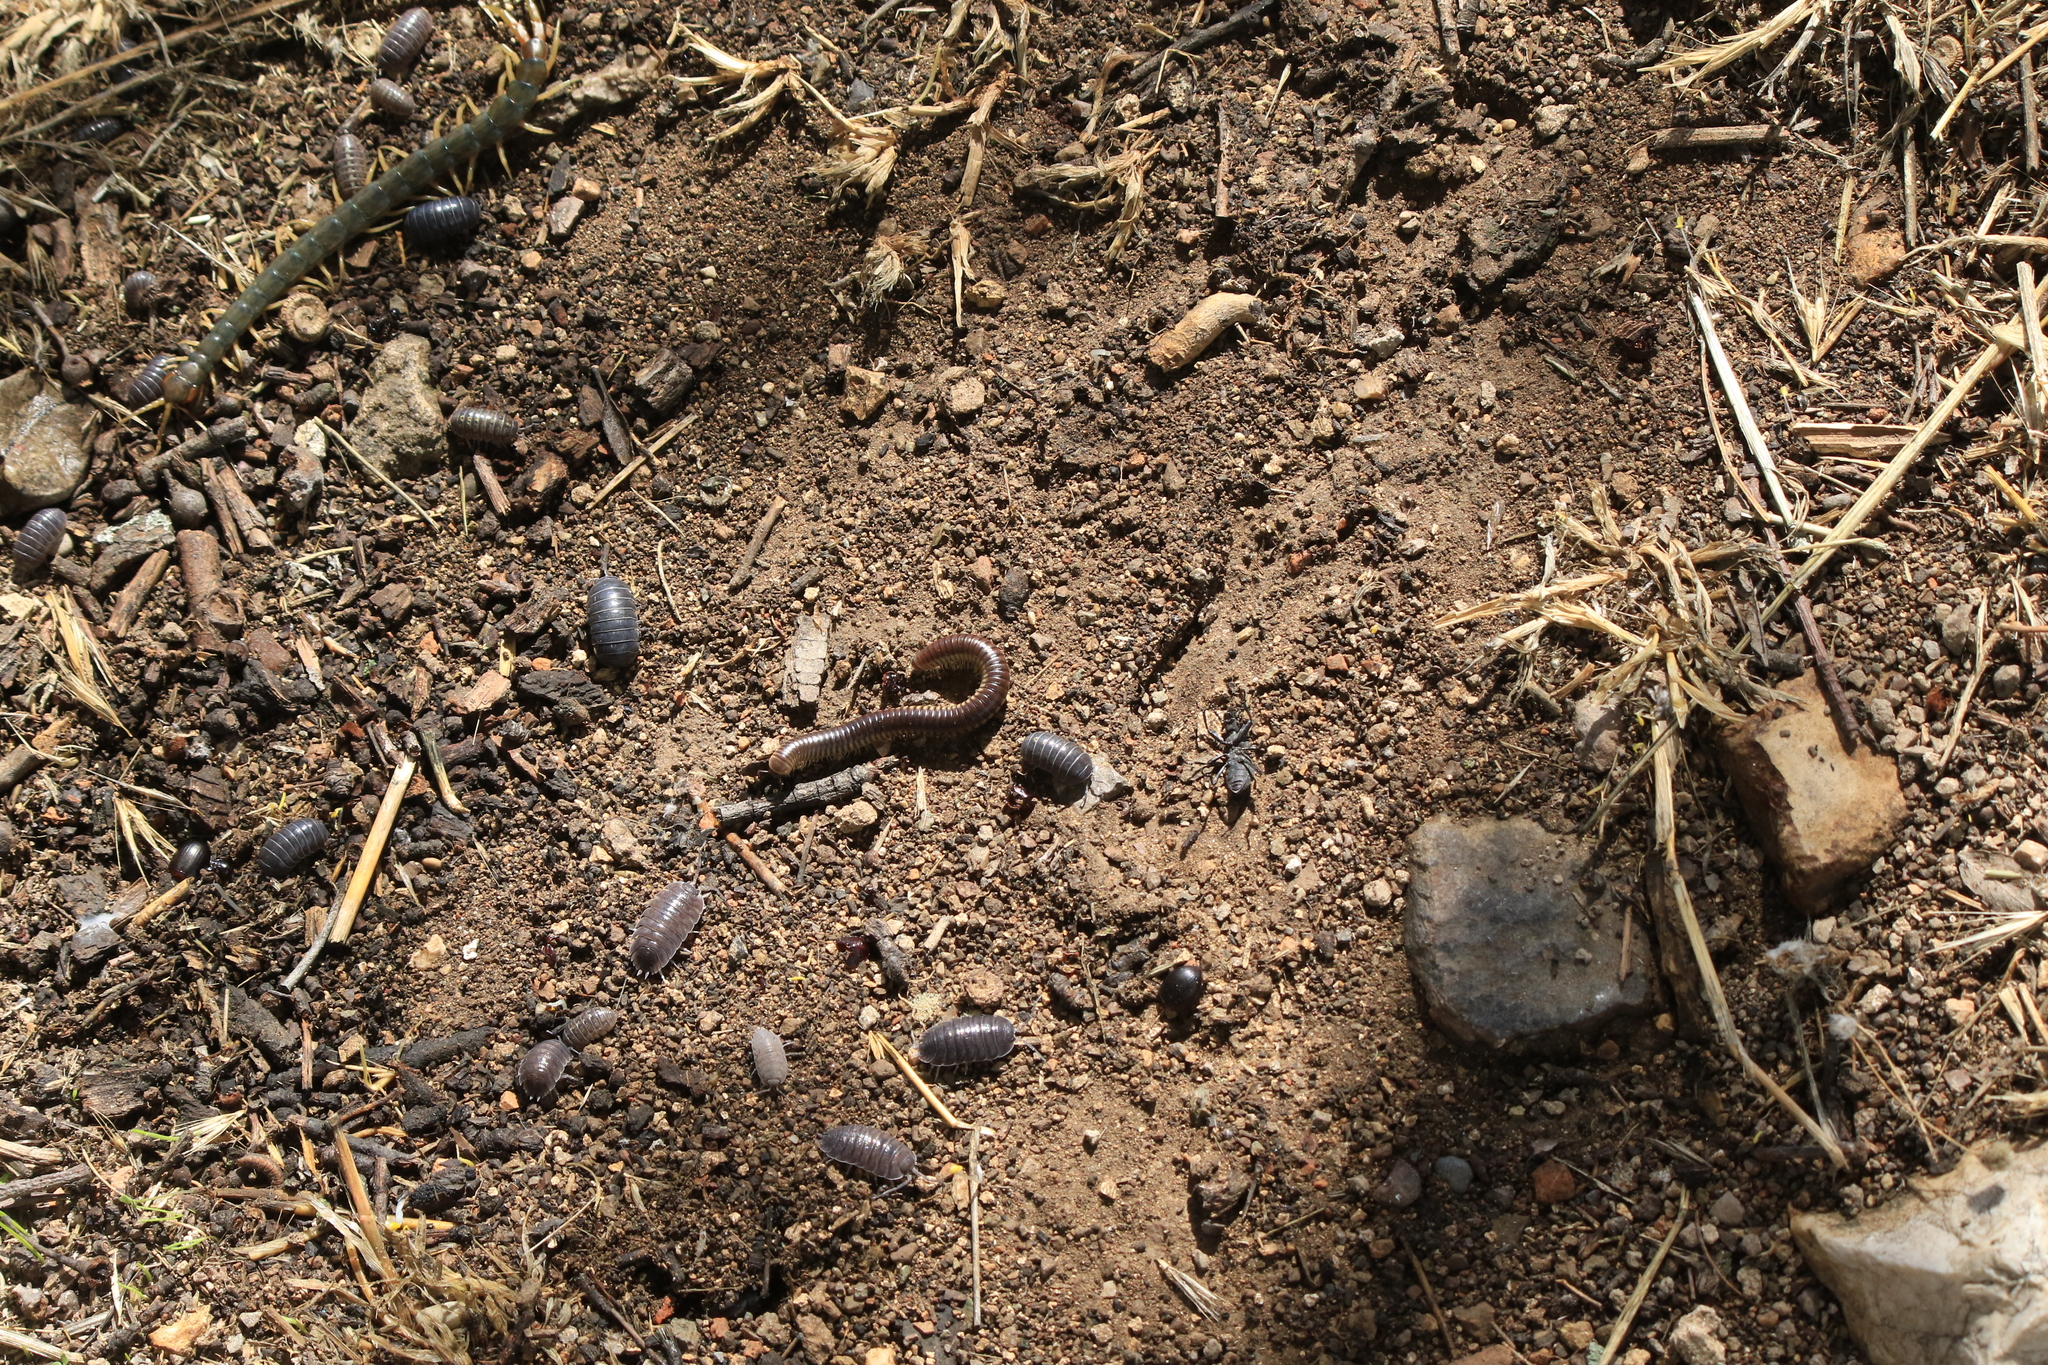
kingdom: Animalia
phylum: Arthropoda
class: Diplopoda
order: Julida
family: Julidae
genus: Pachyiulus
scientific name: Pachyiulus flavipes
